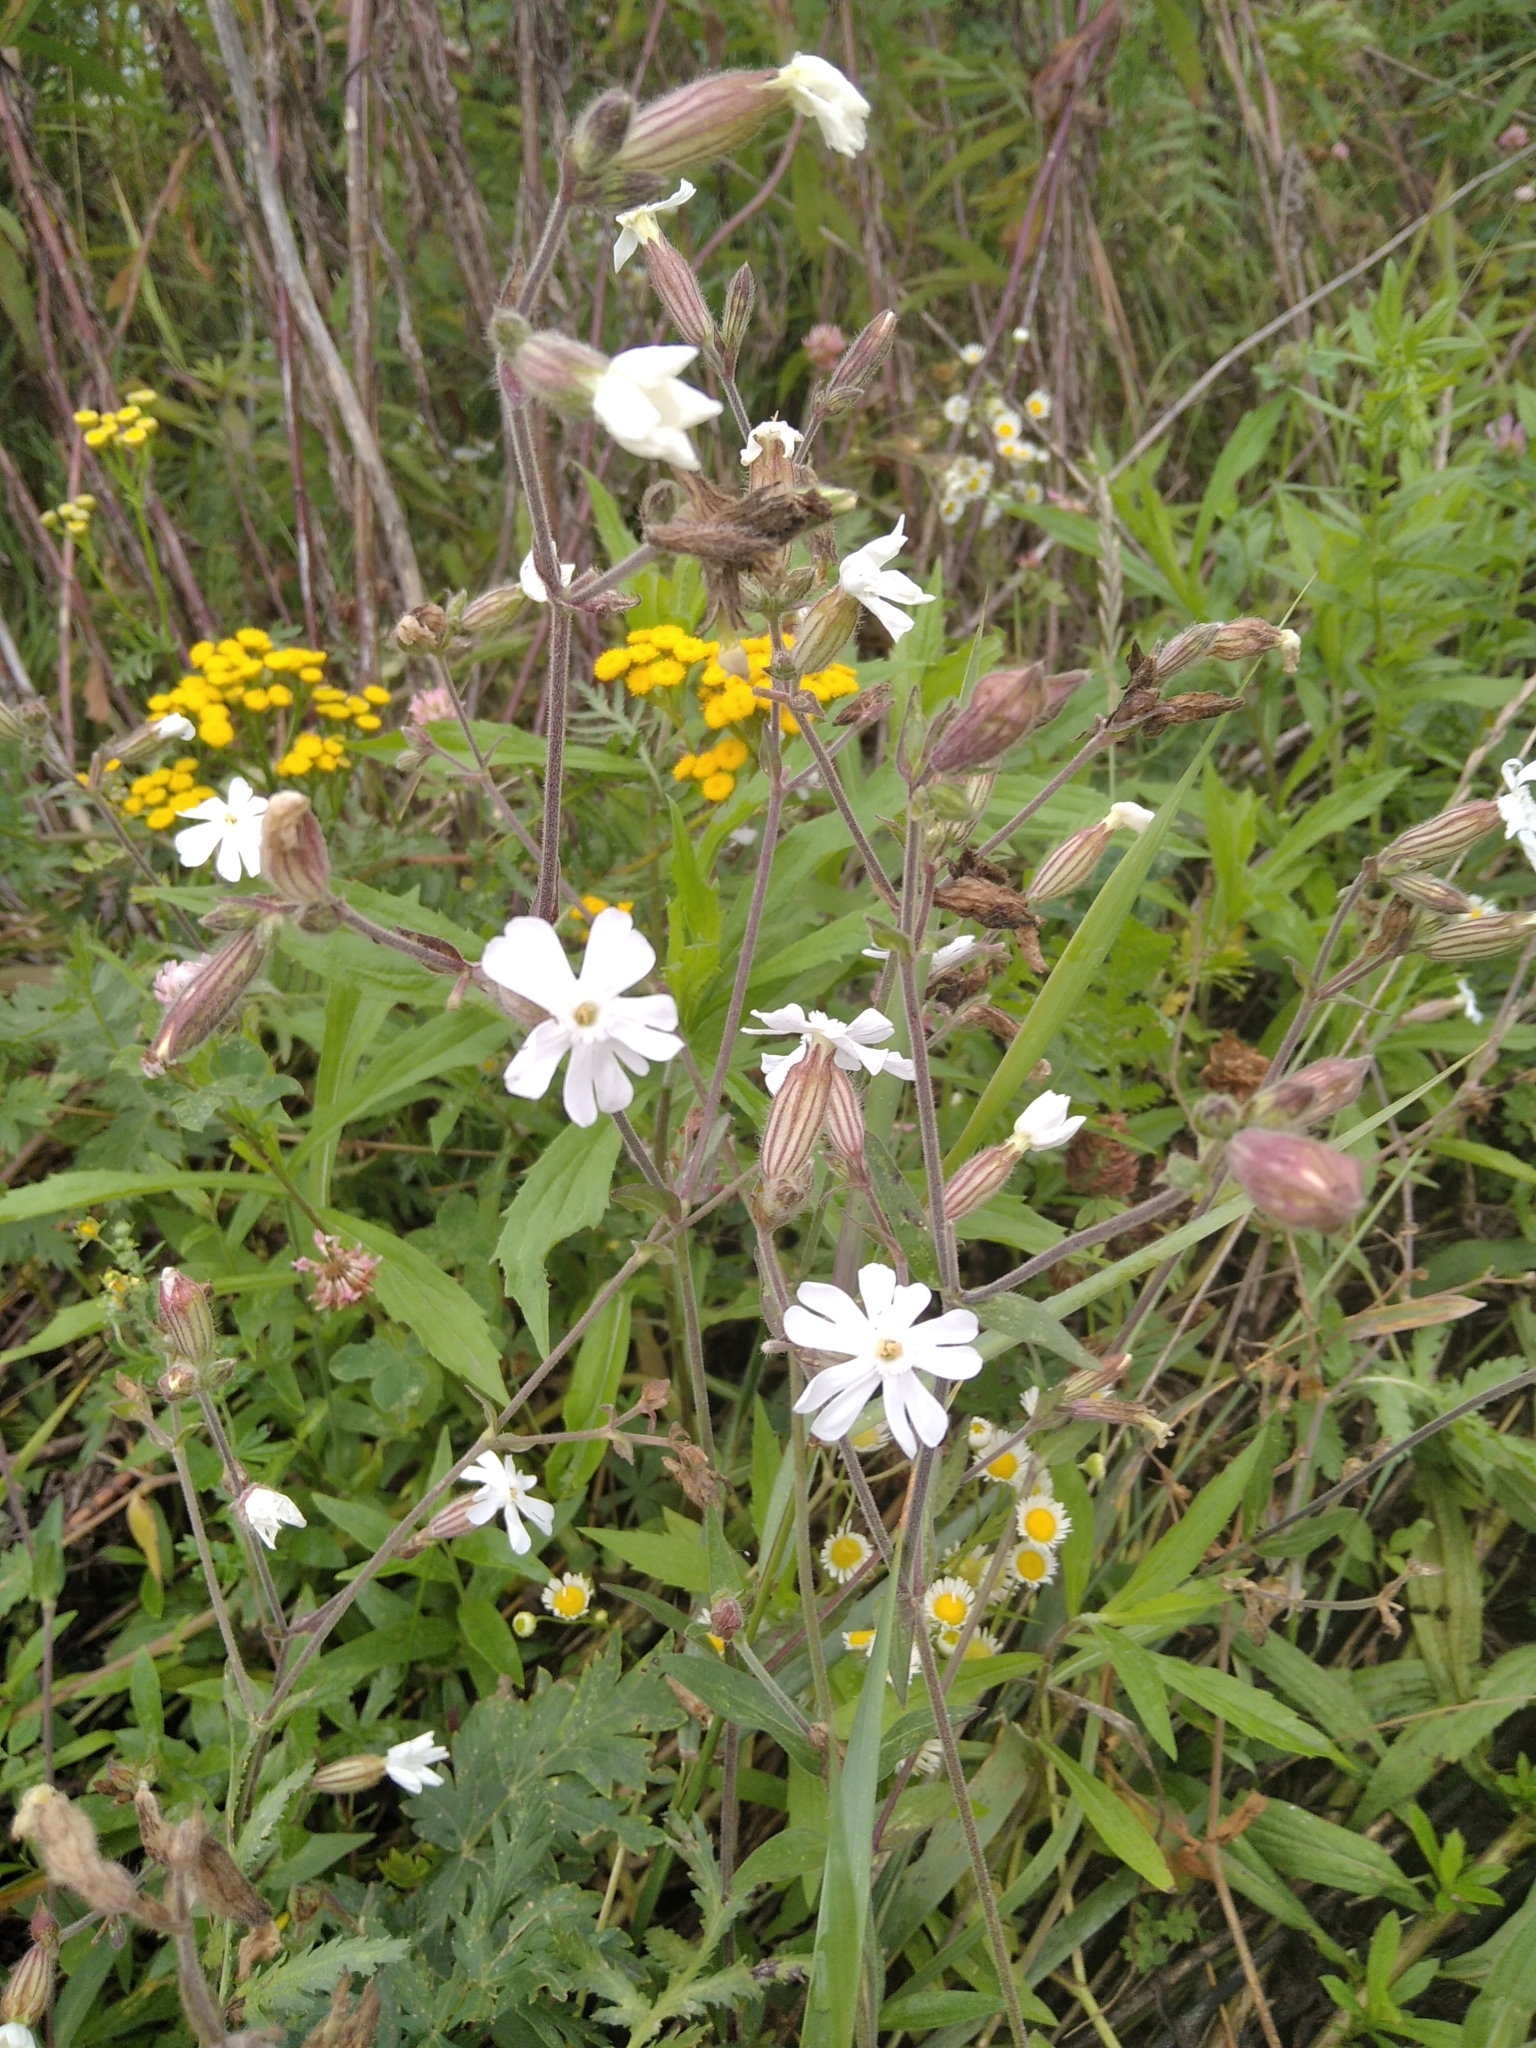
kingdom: Plantae
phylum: Tracheophyta
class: Magnoliopsida
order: Caryophyllales
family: Caryophyllaceae
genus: Silene
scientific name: Silene latifolia
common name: White campion
